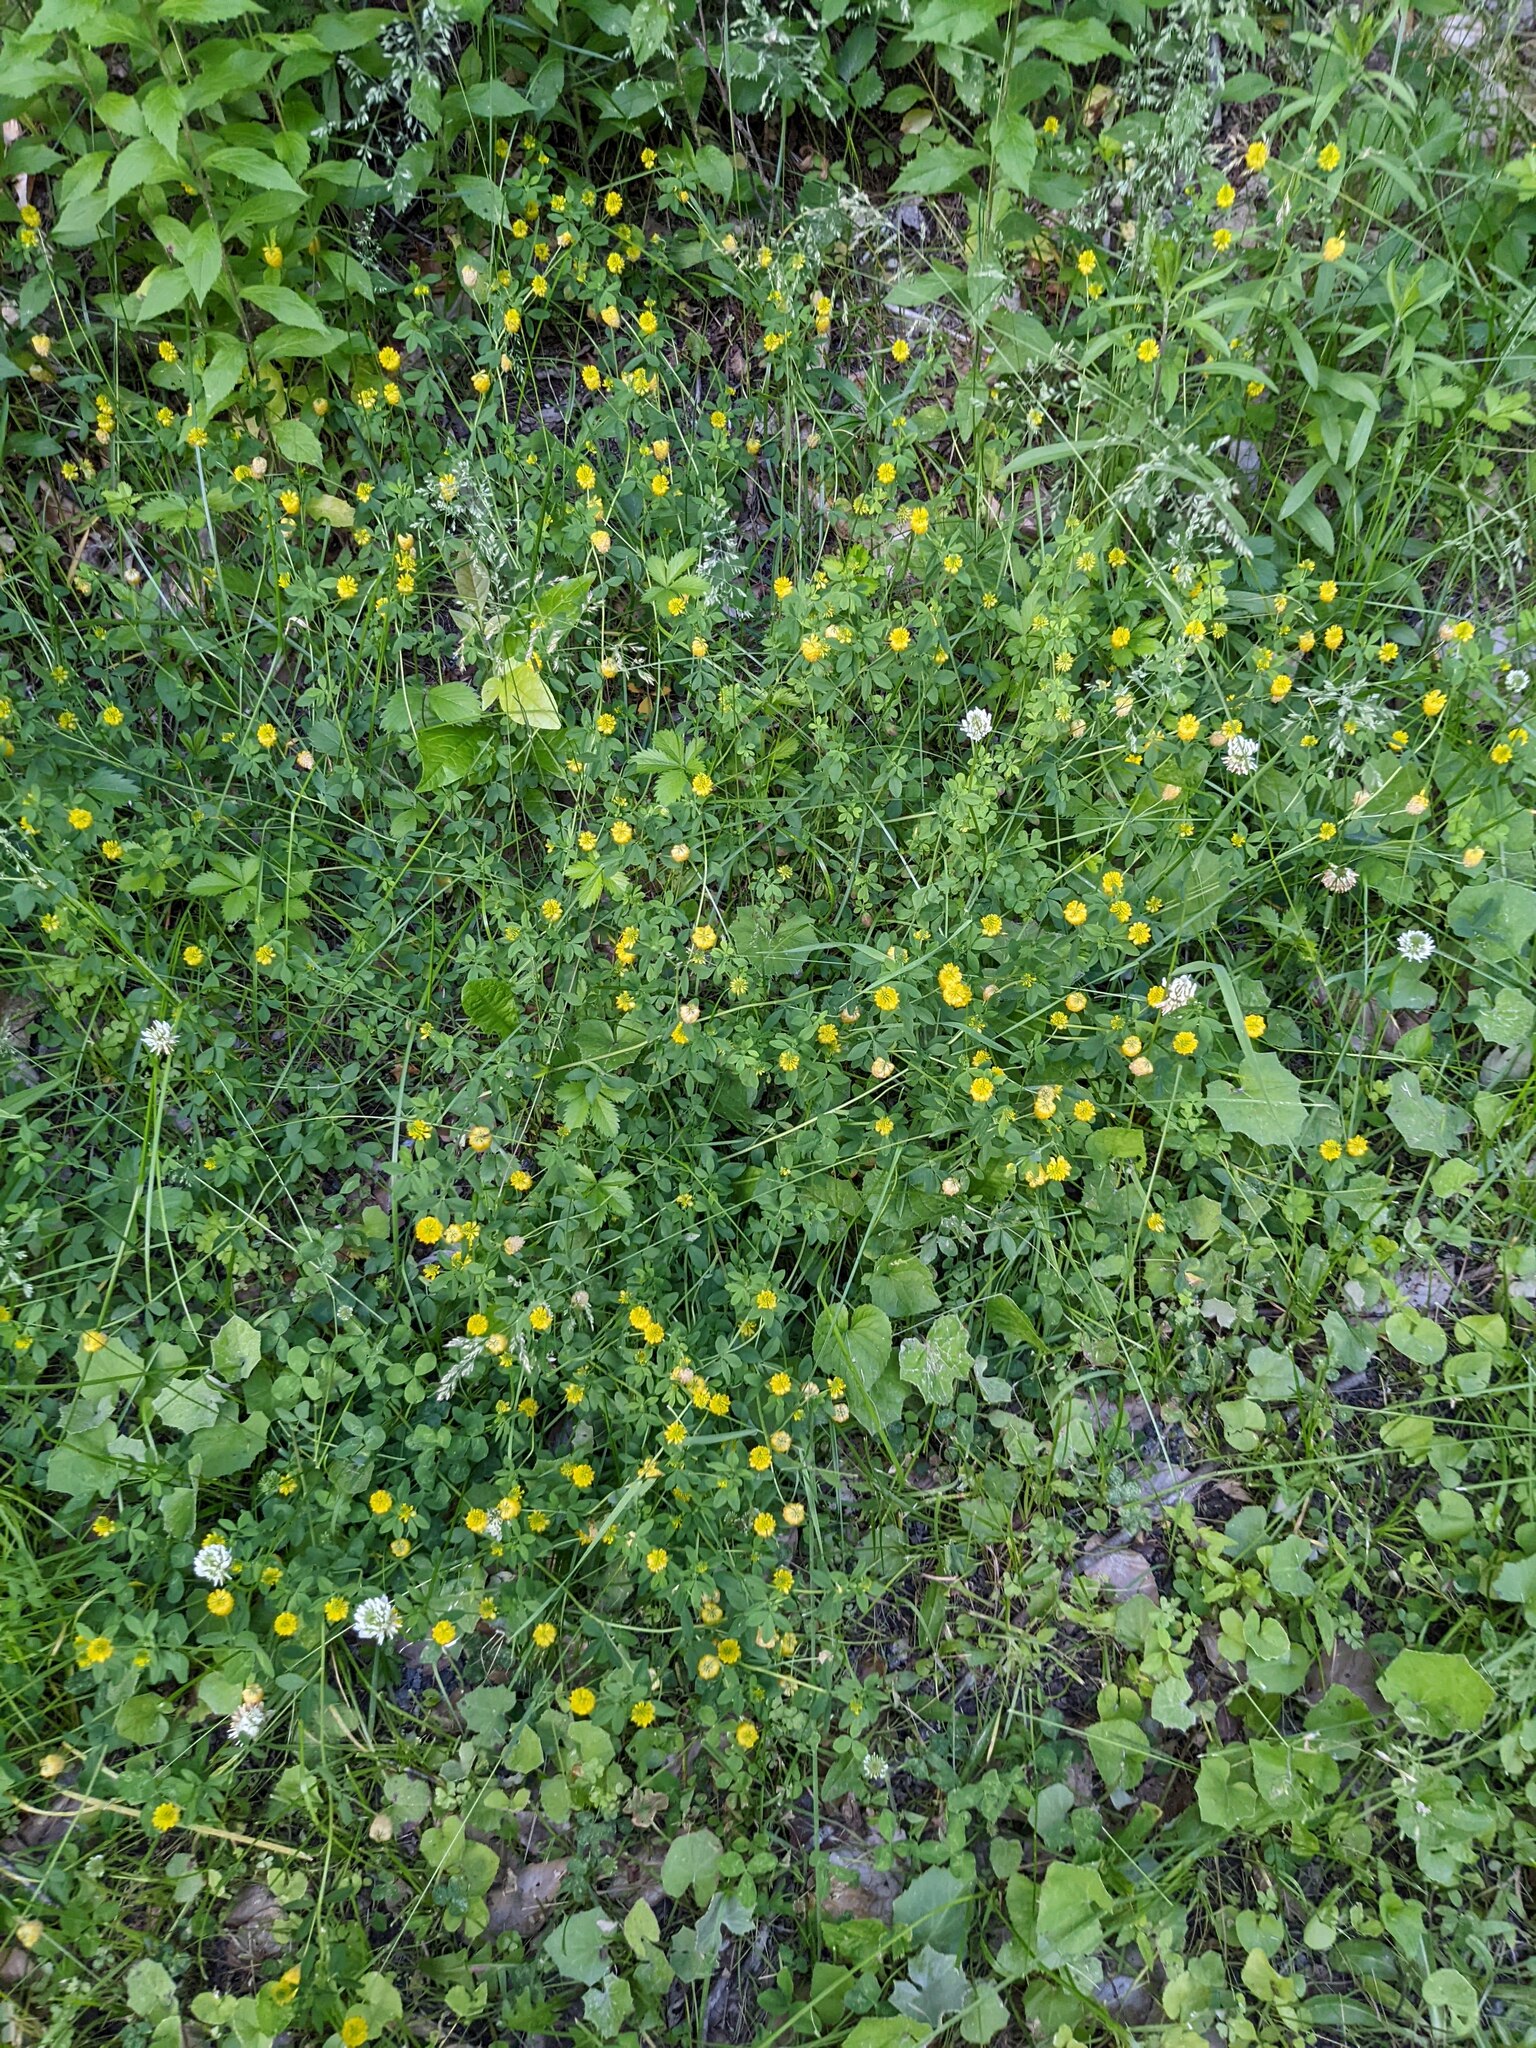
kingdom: Plantae
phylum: Tracheophyta
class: Magnoliopsida
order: Fabales
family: Fabaceae
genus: Trifolium
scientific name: Trifolium aureum
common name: Golden clover
